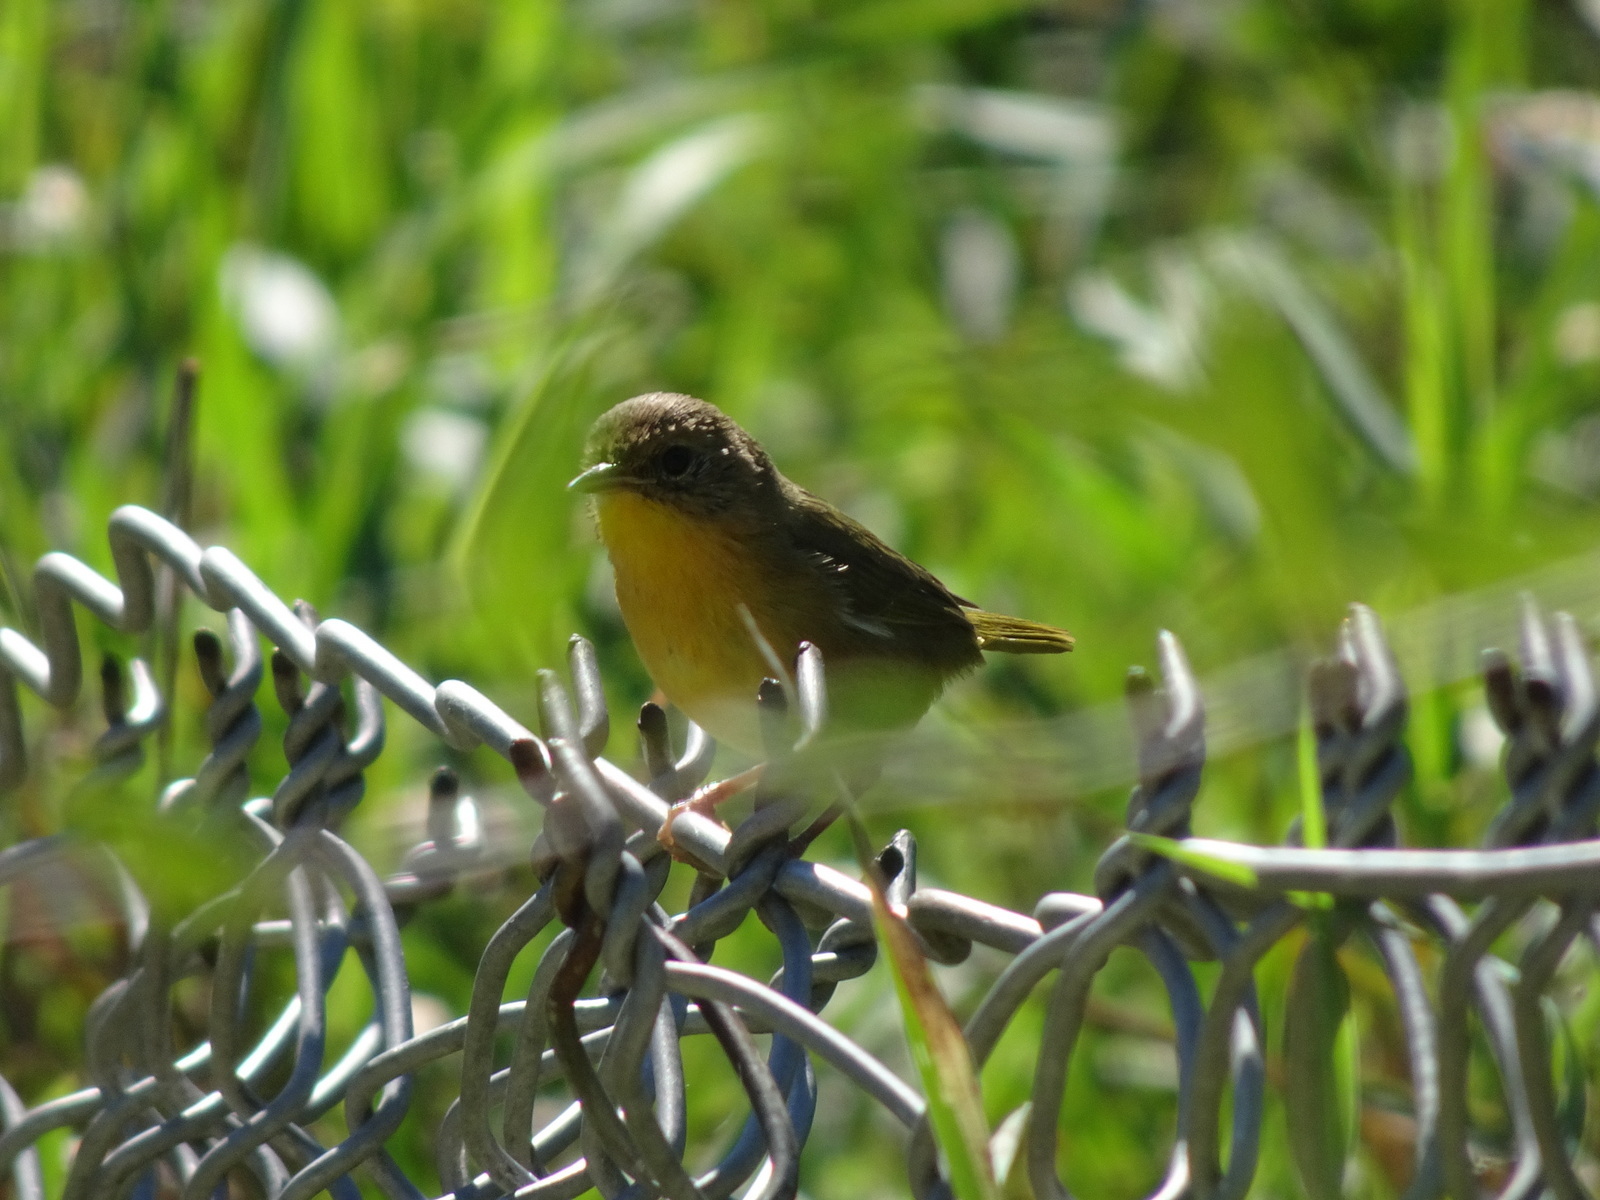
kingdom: Animalia
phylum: Chordata
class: Aves
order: Passeriformes
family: Parulidae
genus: Geothlypis
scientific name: Geothlypis trichas
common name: Common yellowthroat
